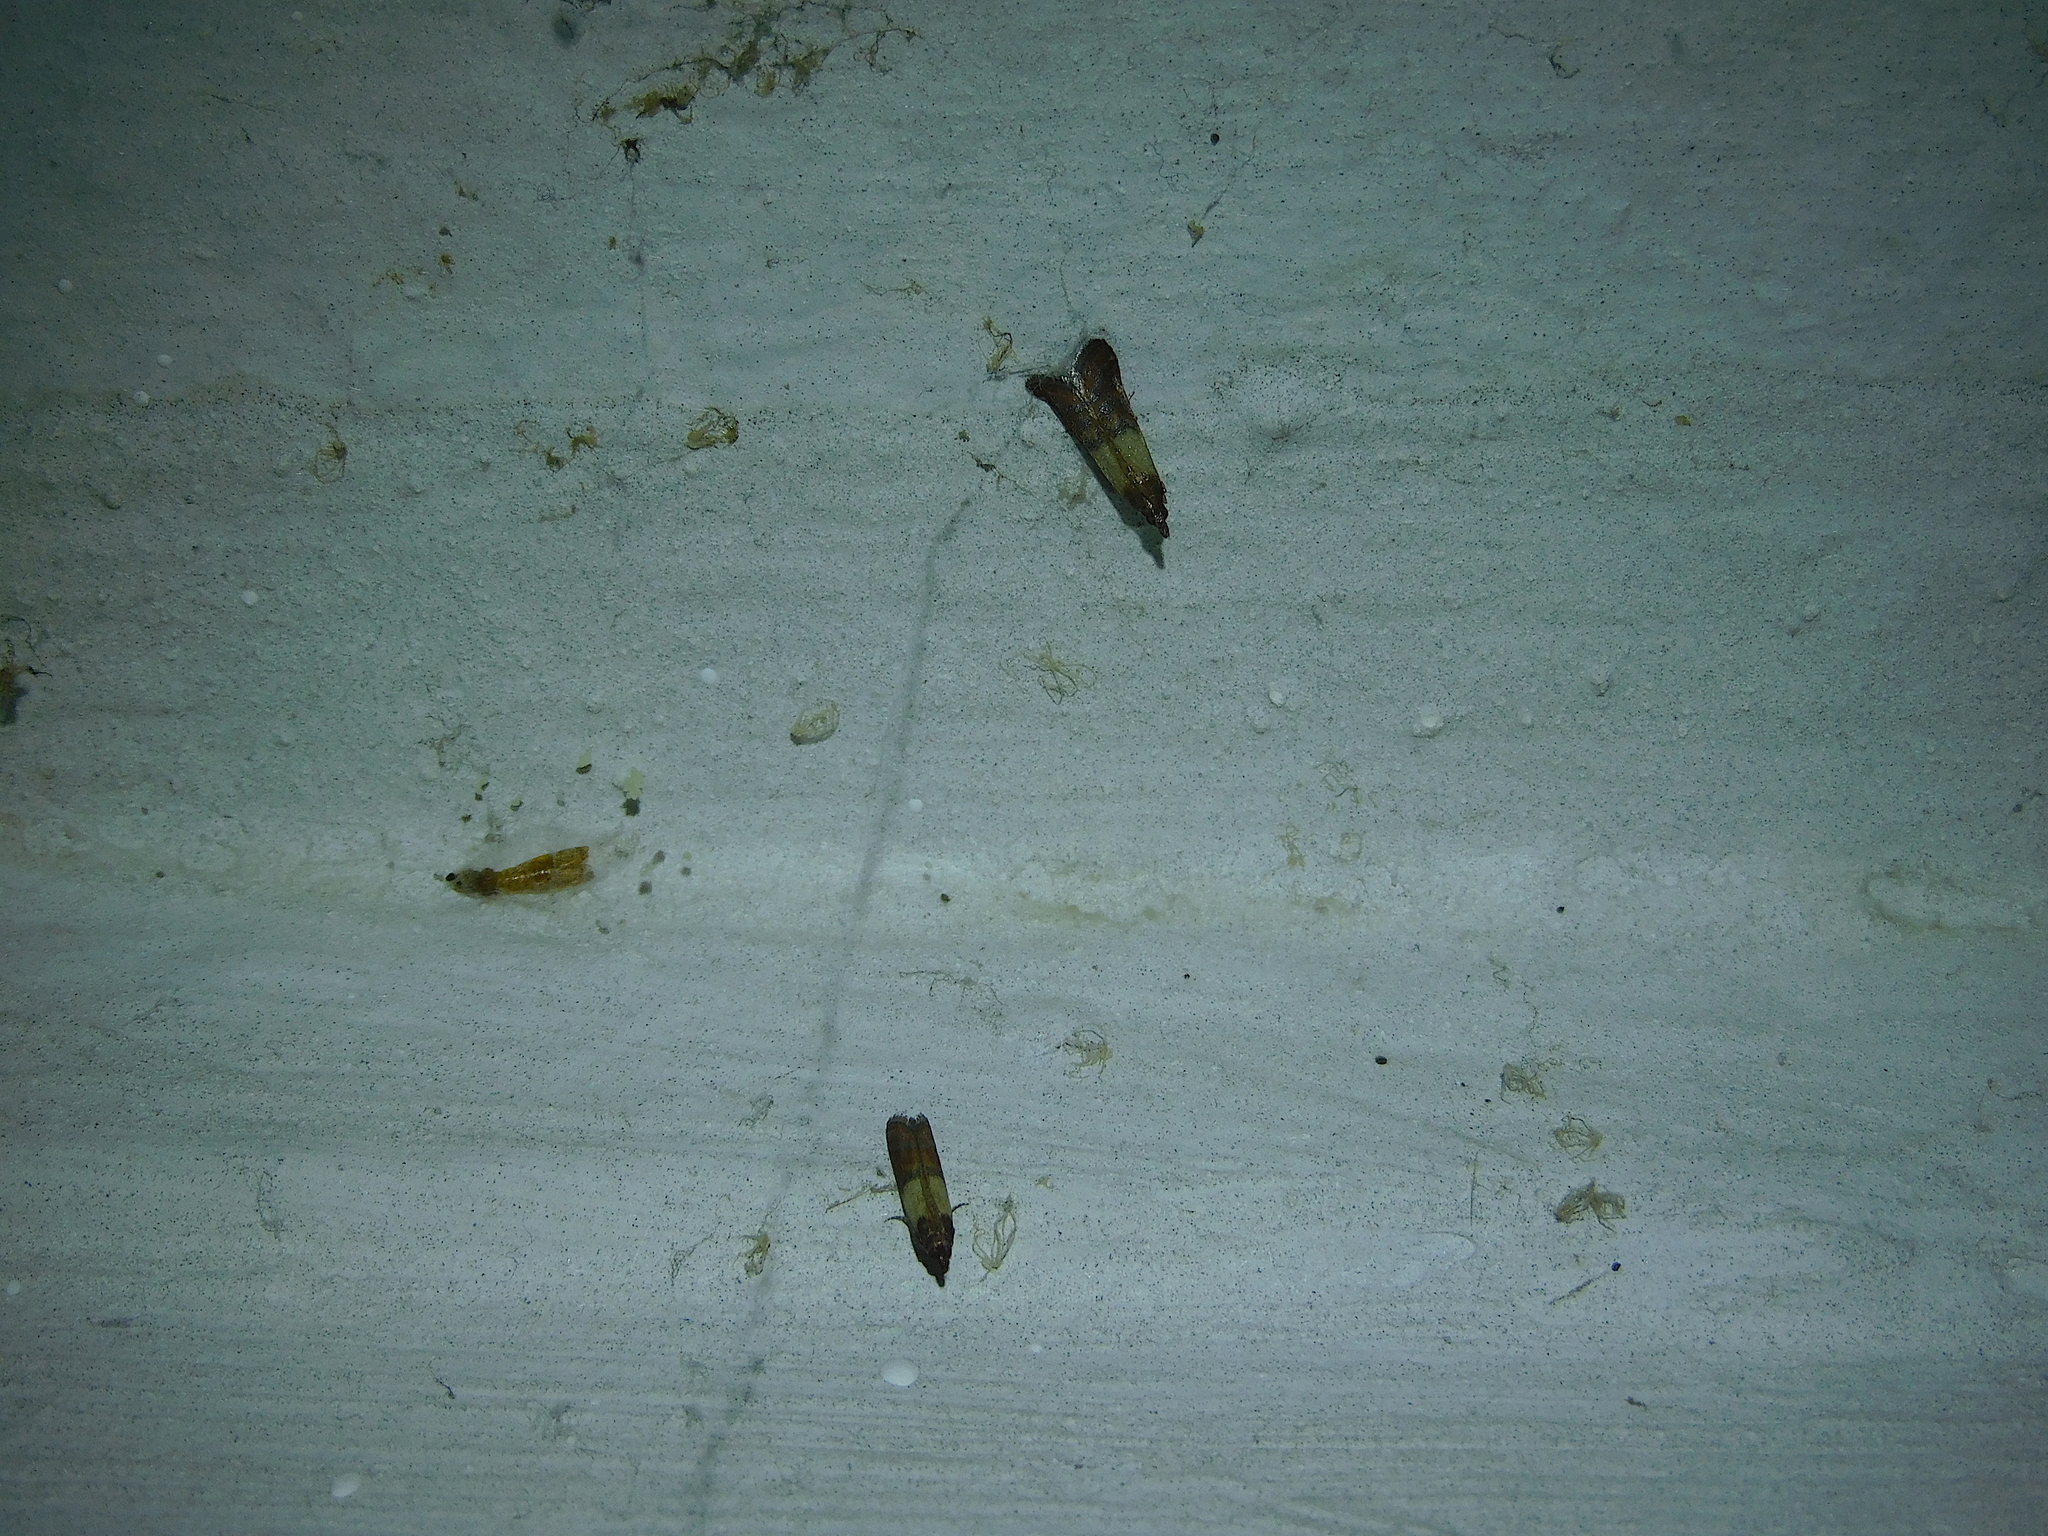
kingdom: Animalia
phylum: Arthropoda
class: Insecta
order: Lepidoptera
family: Pyralidae
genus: Plodia
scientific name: Plodia interpunctella
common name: Indian meal moth
